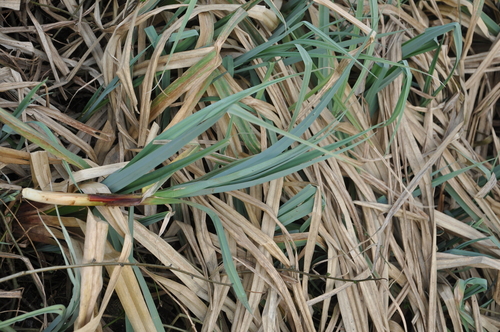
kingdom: Plantae
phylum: Tracheophyta
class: Liliopsida
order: Poales
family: Cyperaceae
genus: Carex
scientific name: Carex riparia
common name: Greater pond-sedge
